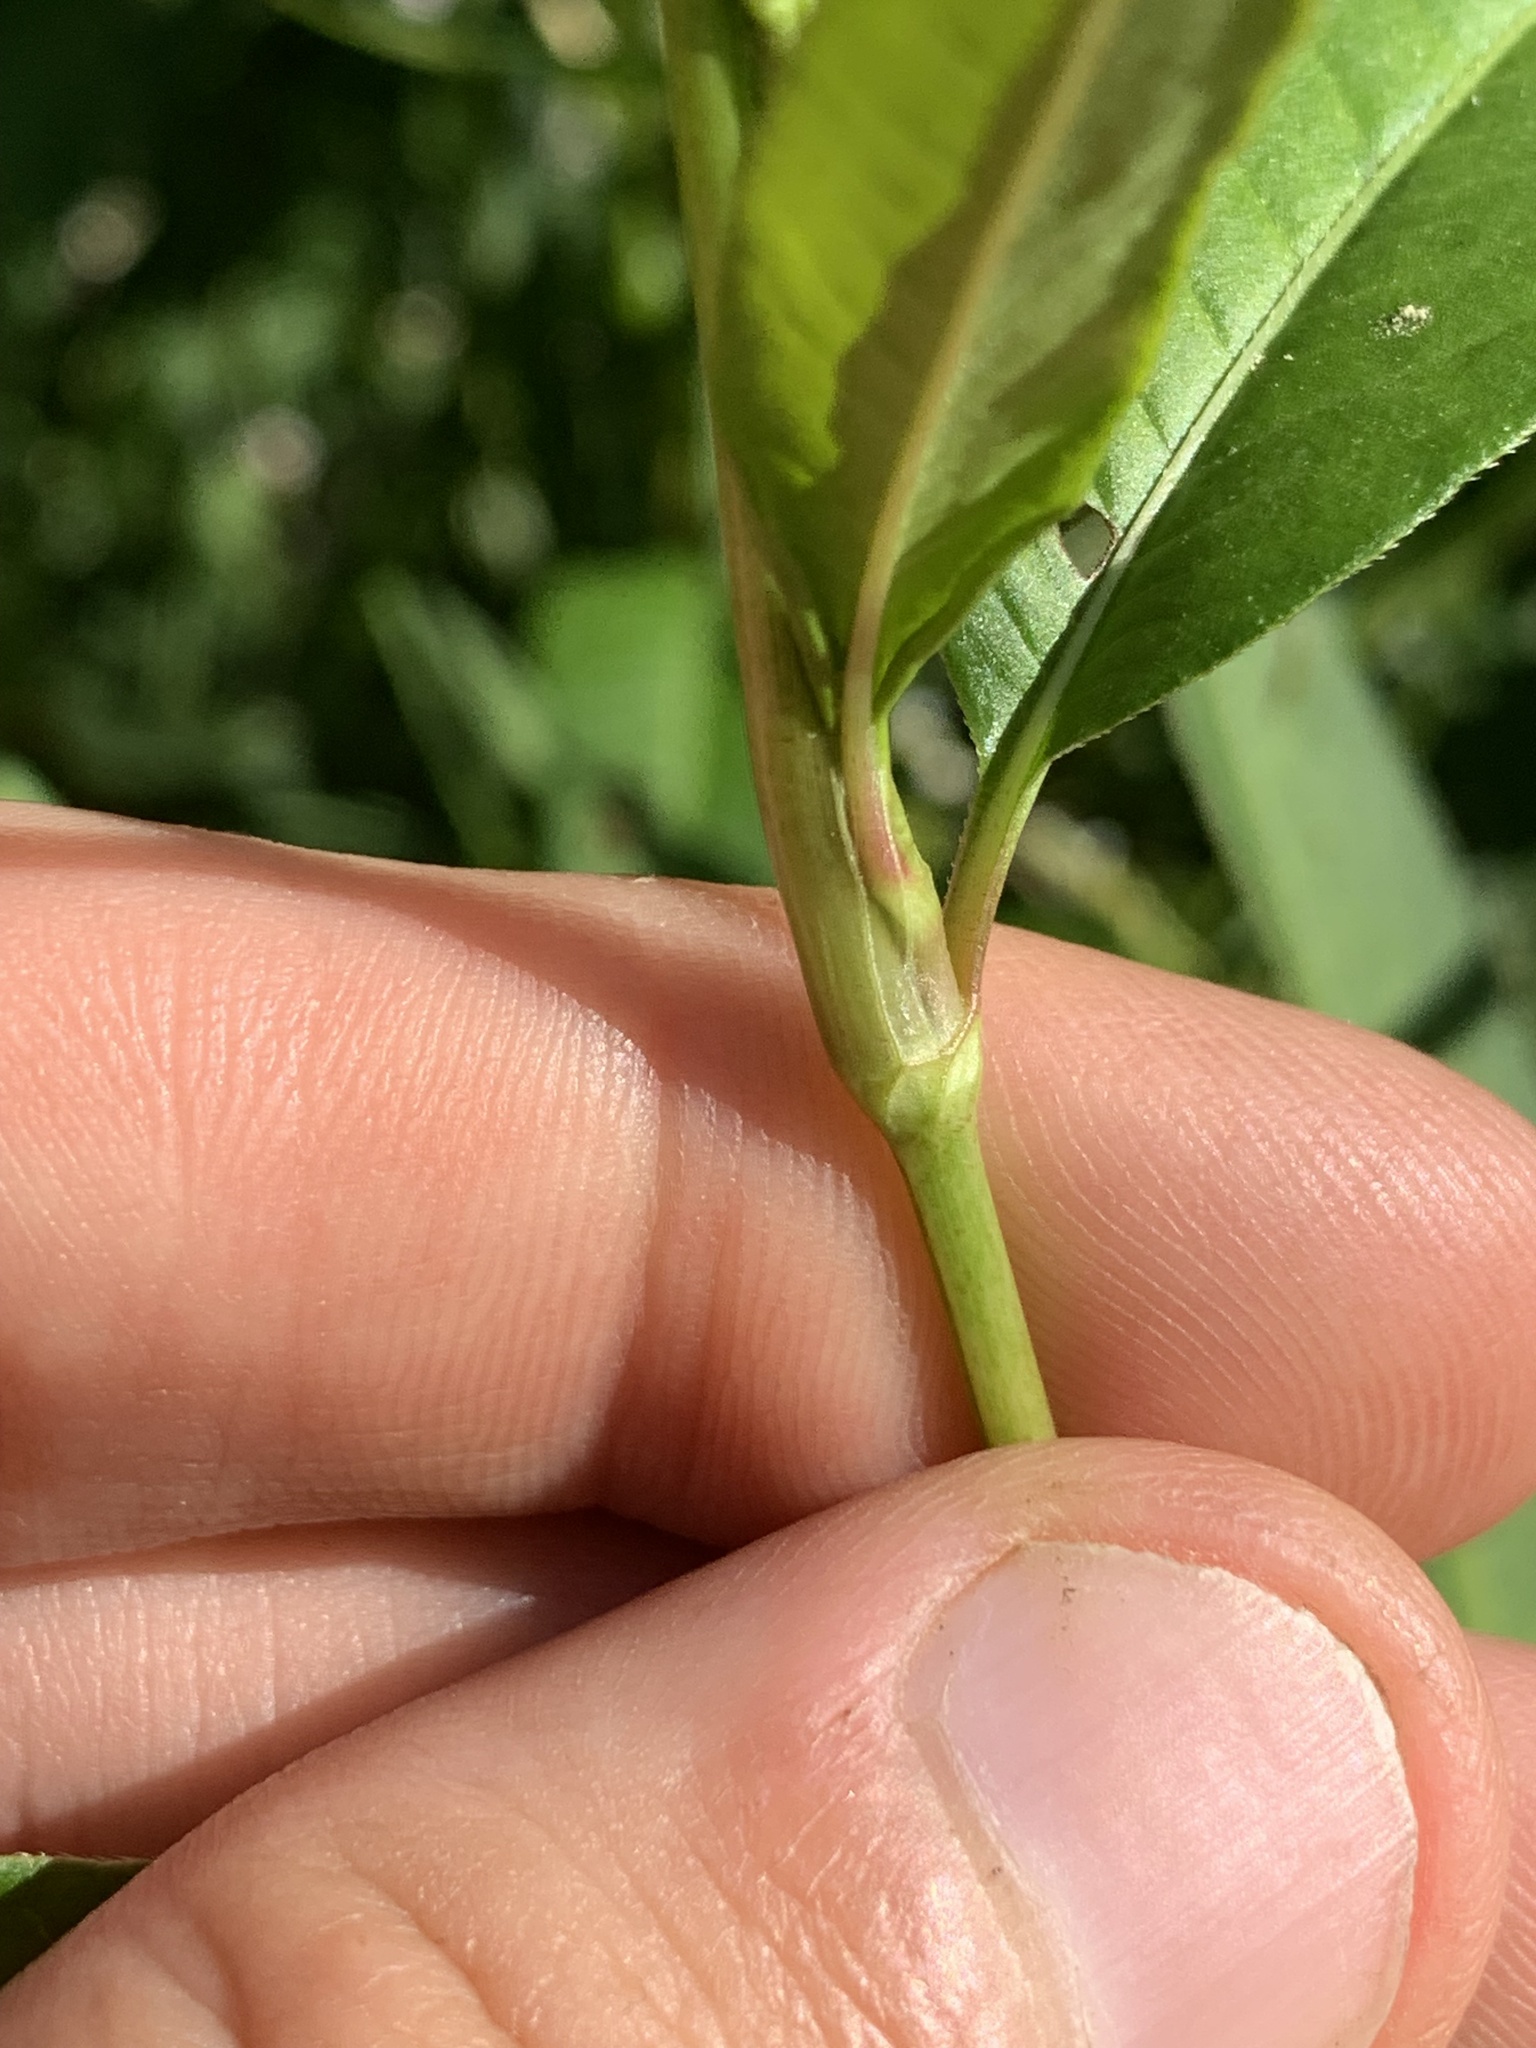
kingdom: Plantae
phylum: Tracheophyta
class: Magnoliopsida
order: Caryophyllales
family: Polygonaceae
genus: Persicaria
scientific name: Persicaria pensylvanica
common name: Pinkweed
